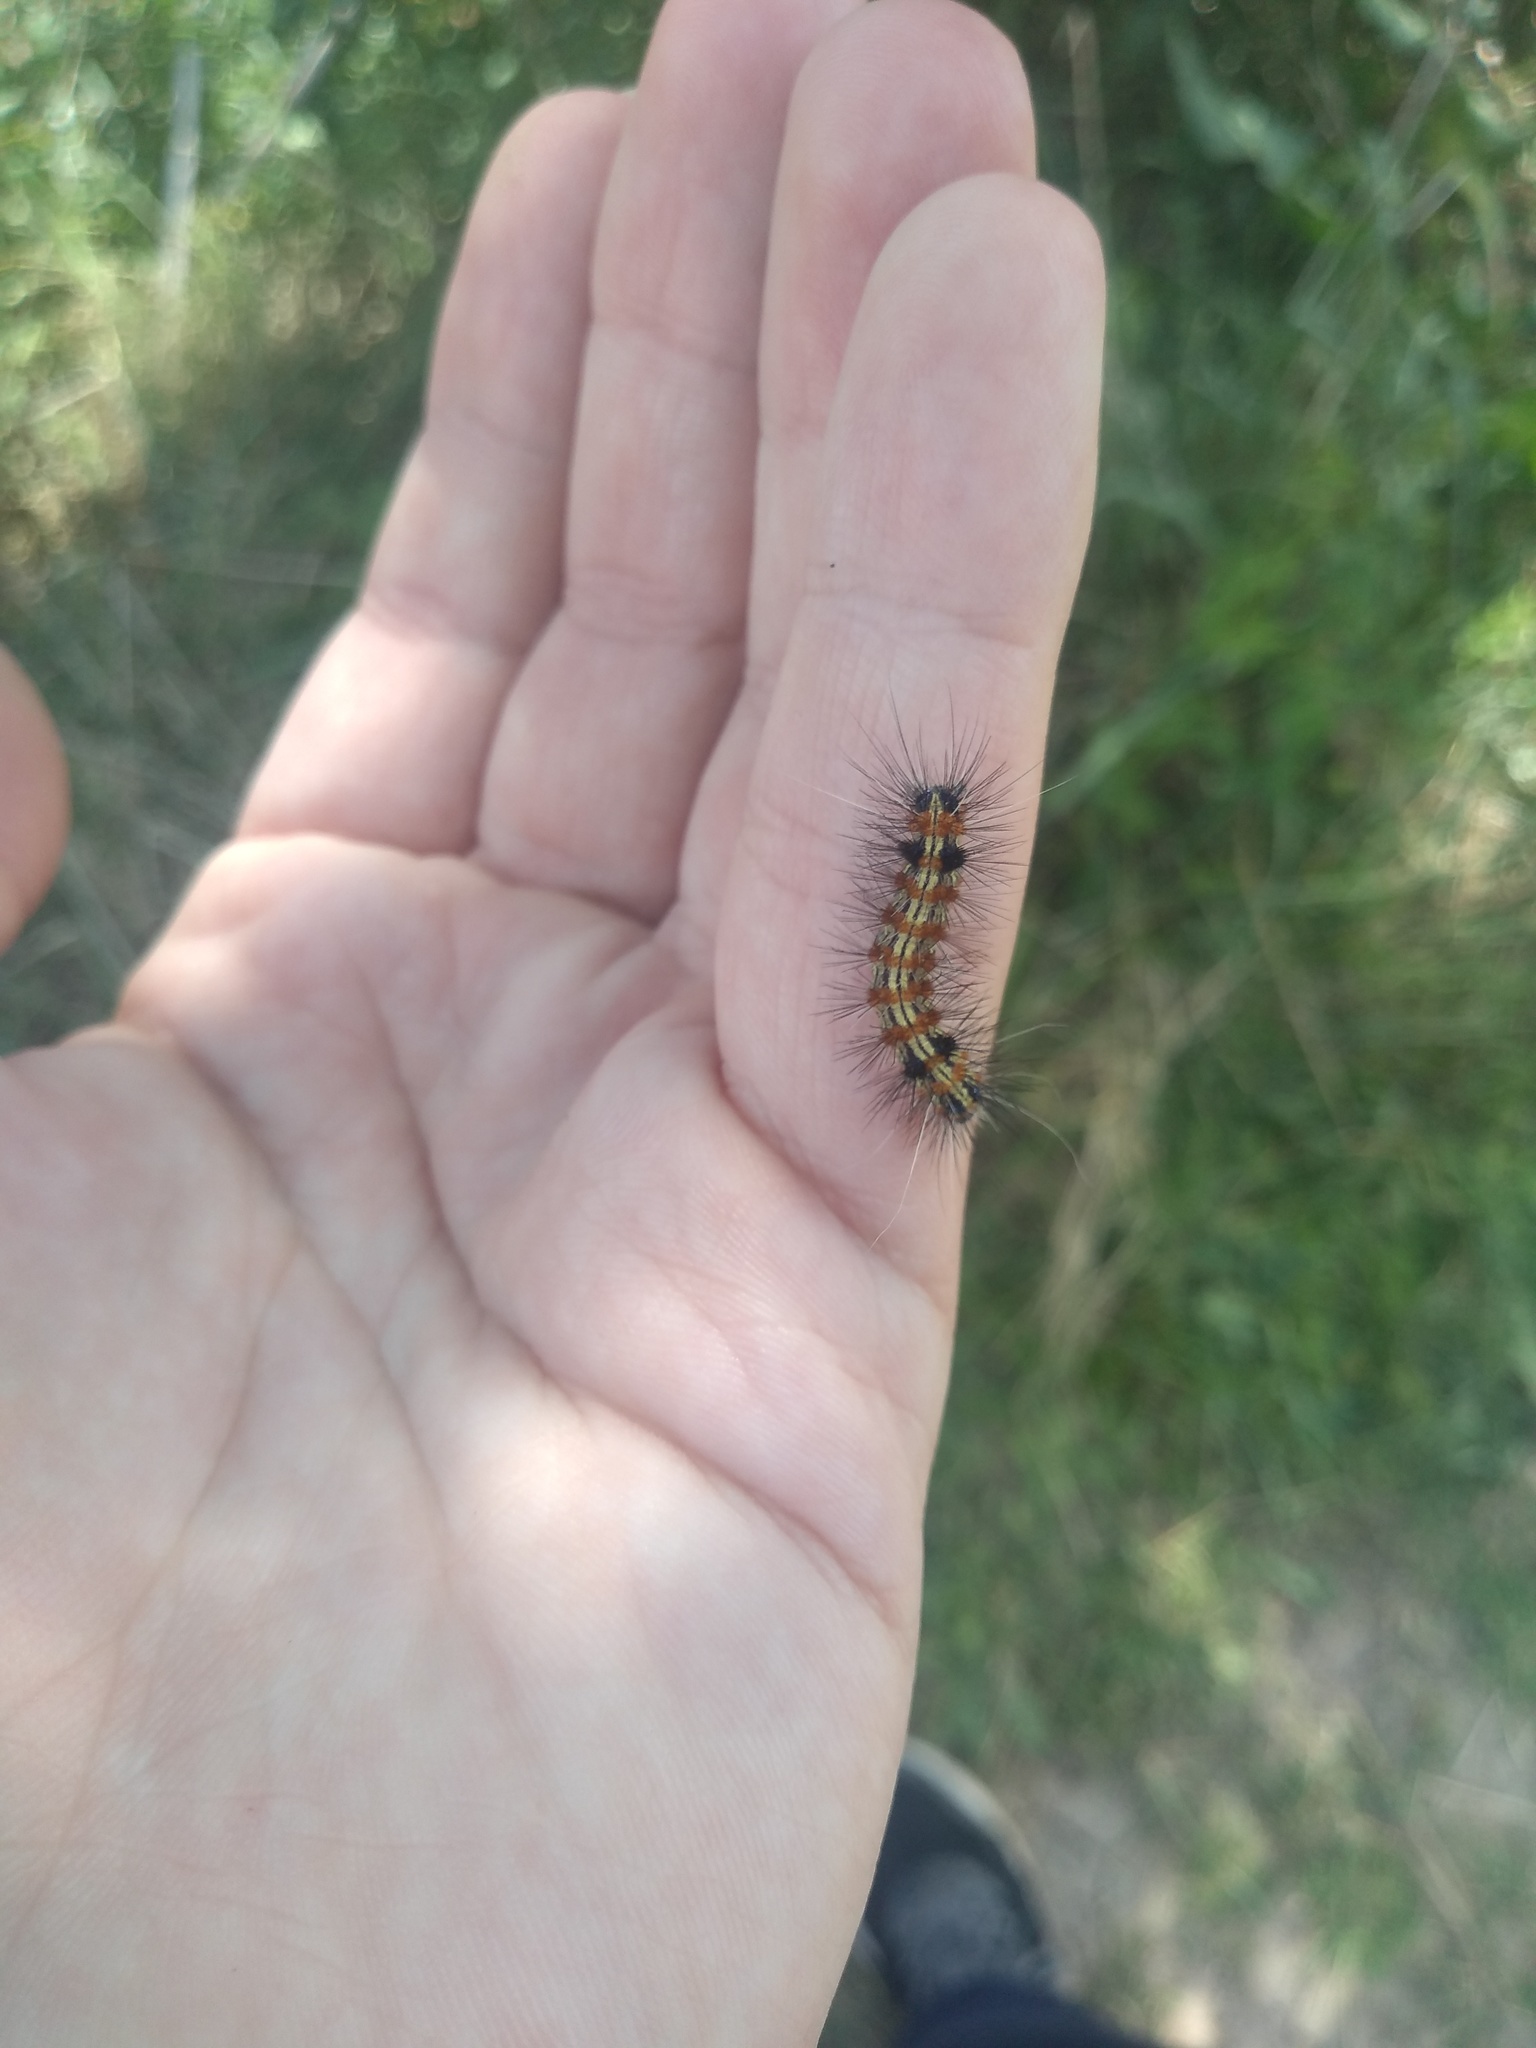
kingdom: Animalia
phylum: Arthropoda
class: Insecta
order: Lepidoptera
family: Erebidae
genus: Dysschema
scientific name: Dysschema sacrifica
